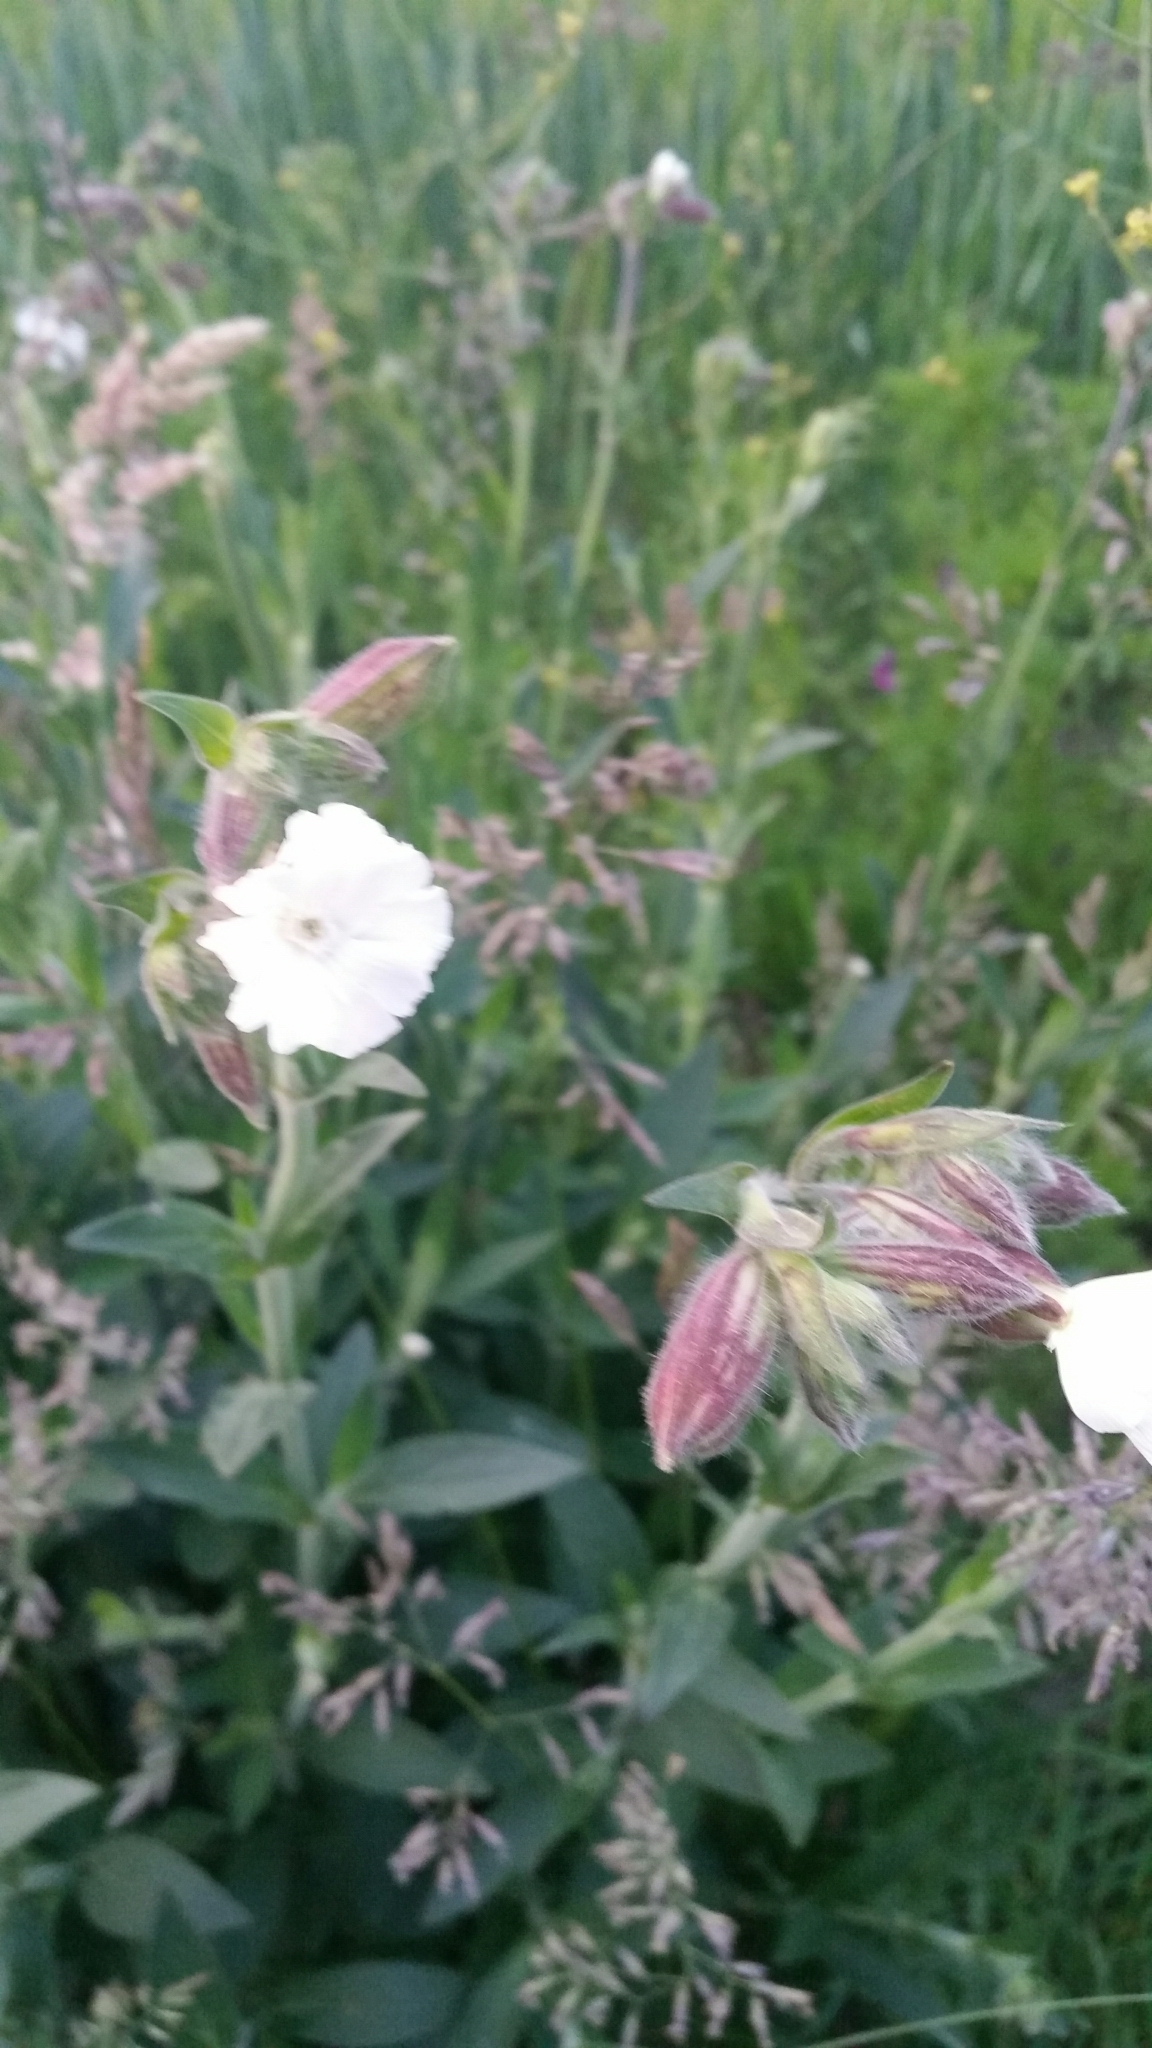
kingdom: Plantae
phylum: Tracheophyta
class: Magnoliopsida
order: Caryophyllales
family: Caryophyllaceae
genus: Silene
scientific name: Silene latifolia
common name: White campion
